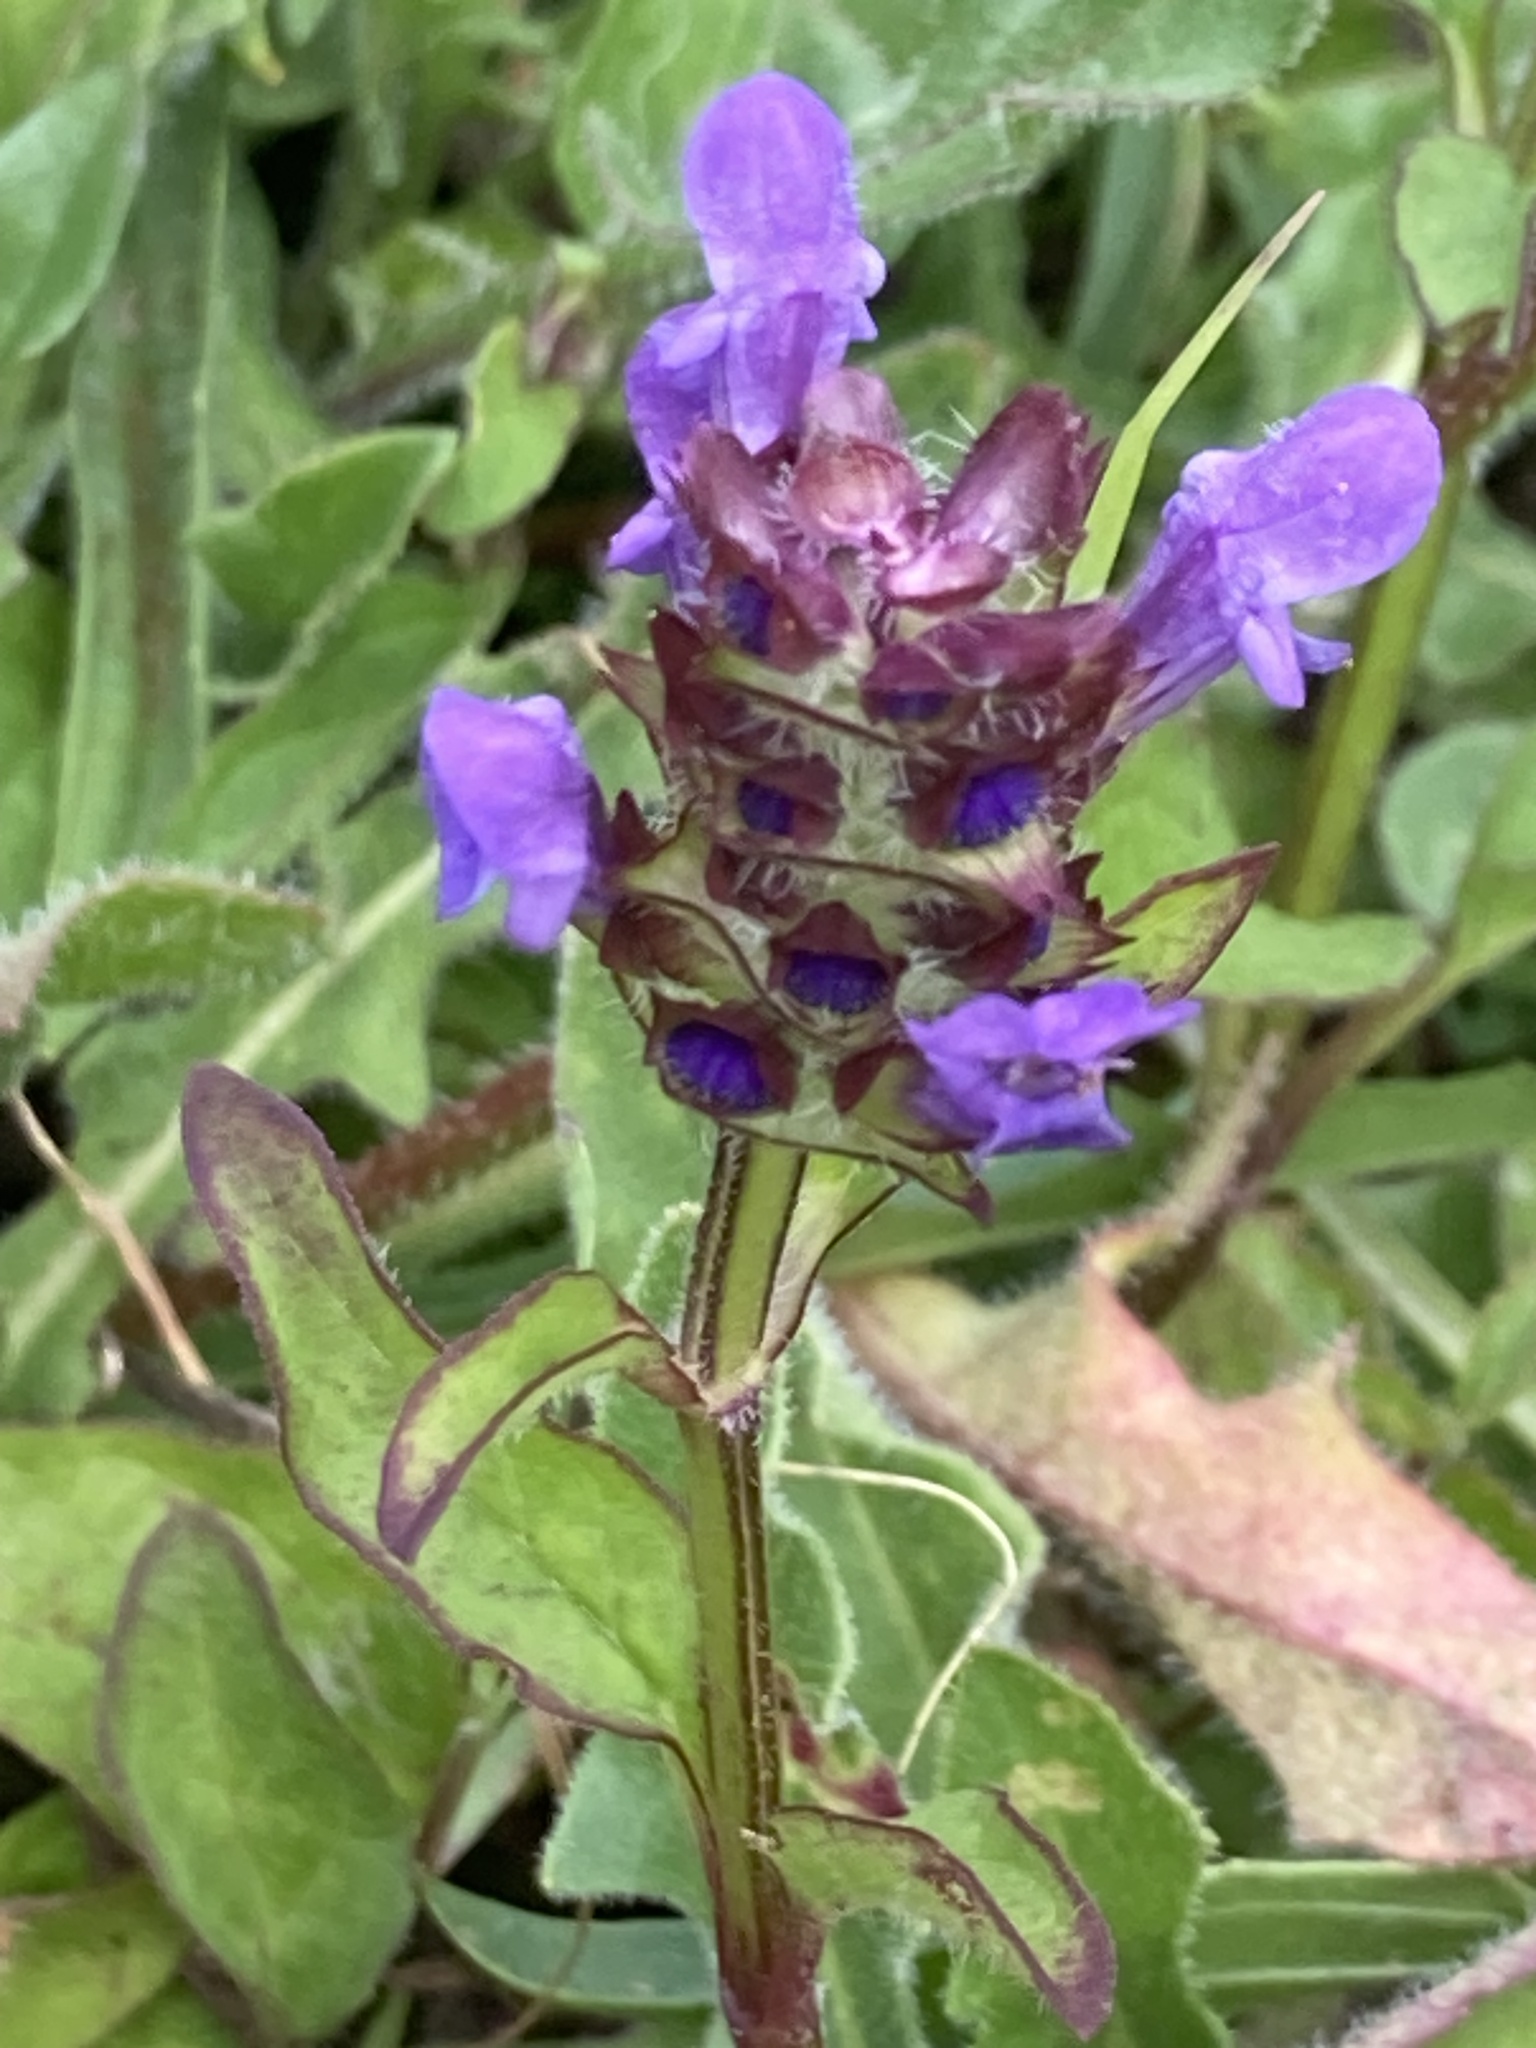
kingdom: Plantae
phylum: Tracheophyta
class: Magnoliopsida
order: Lamiales
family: Lamiaceae
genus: Prunella
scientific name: Prunella vulgaris
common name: Heal-all
